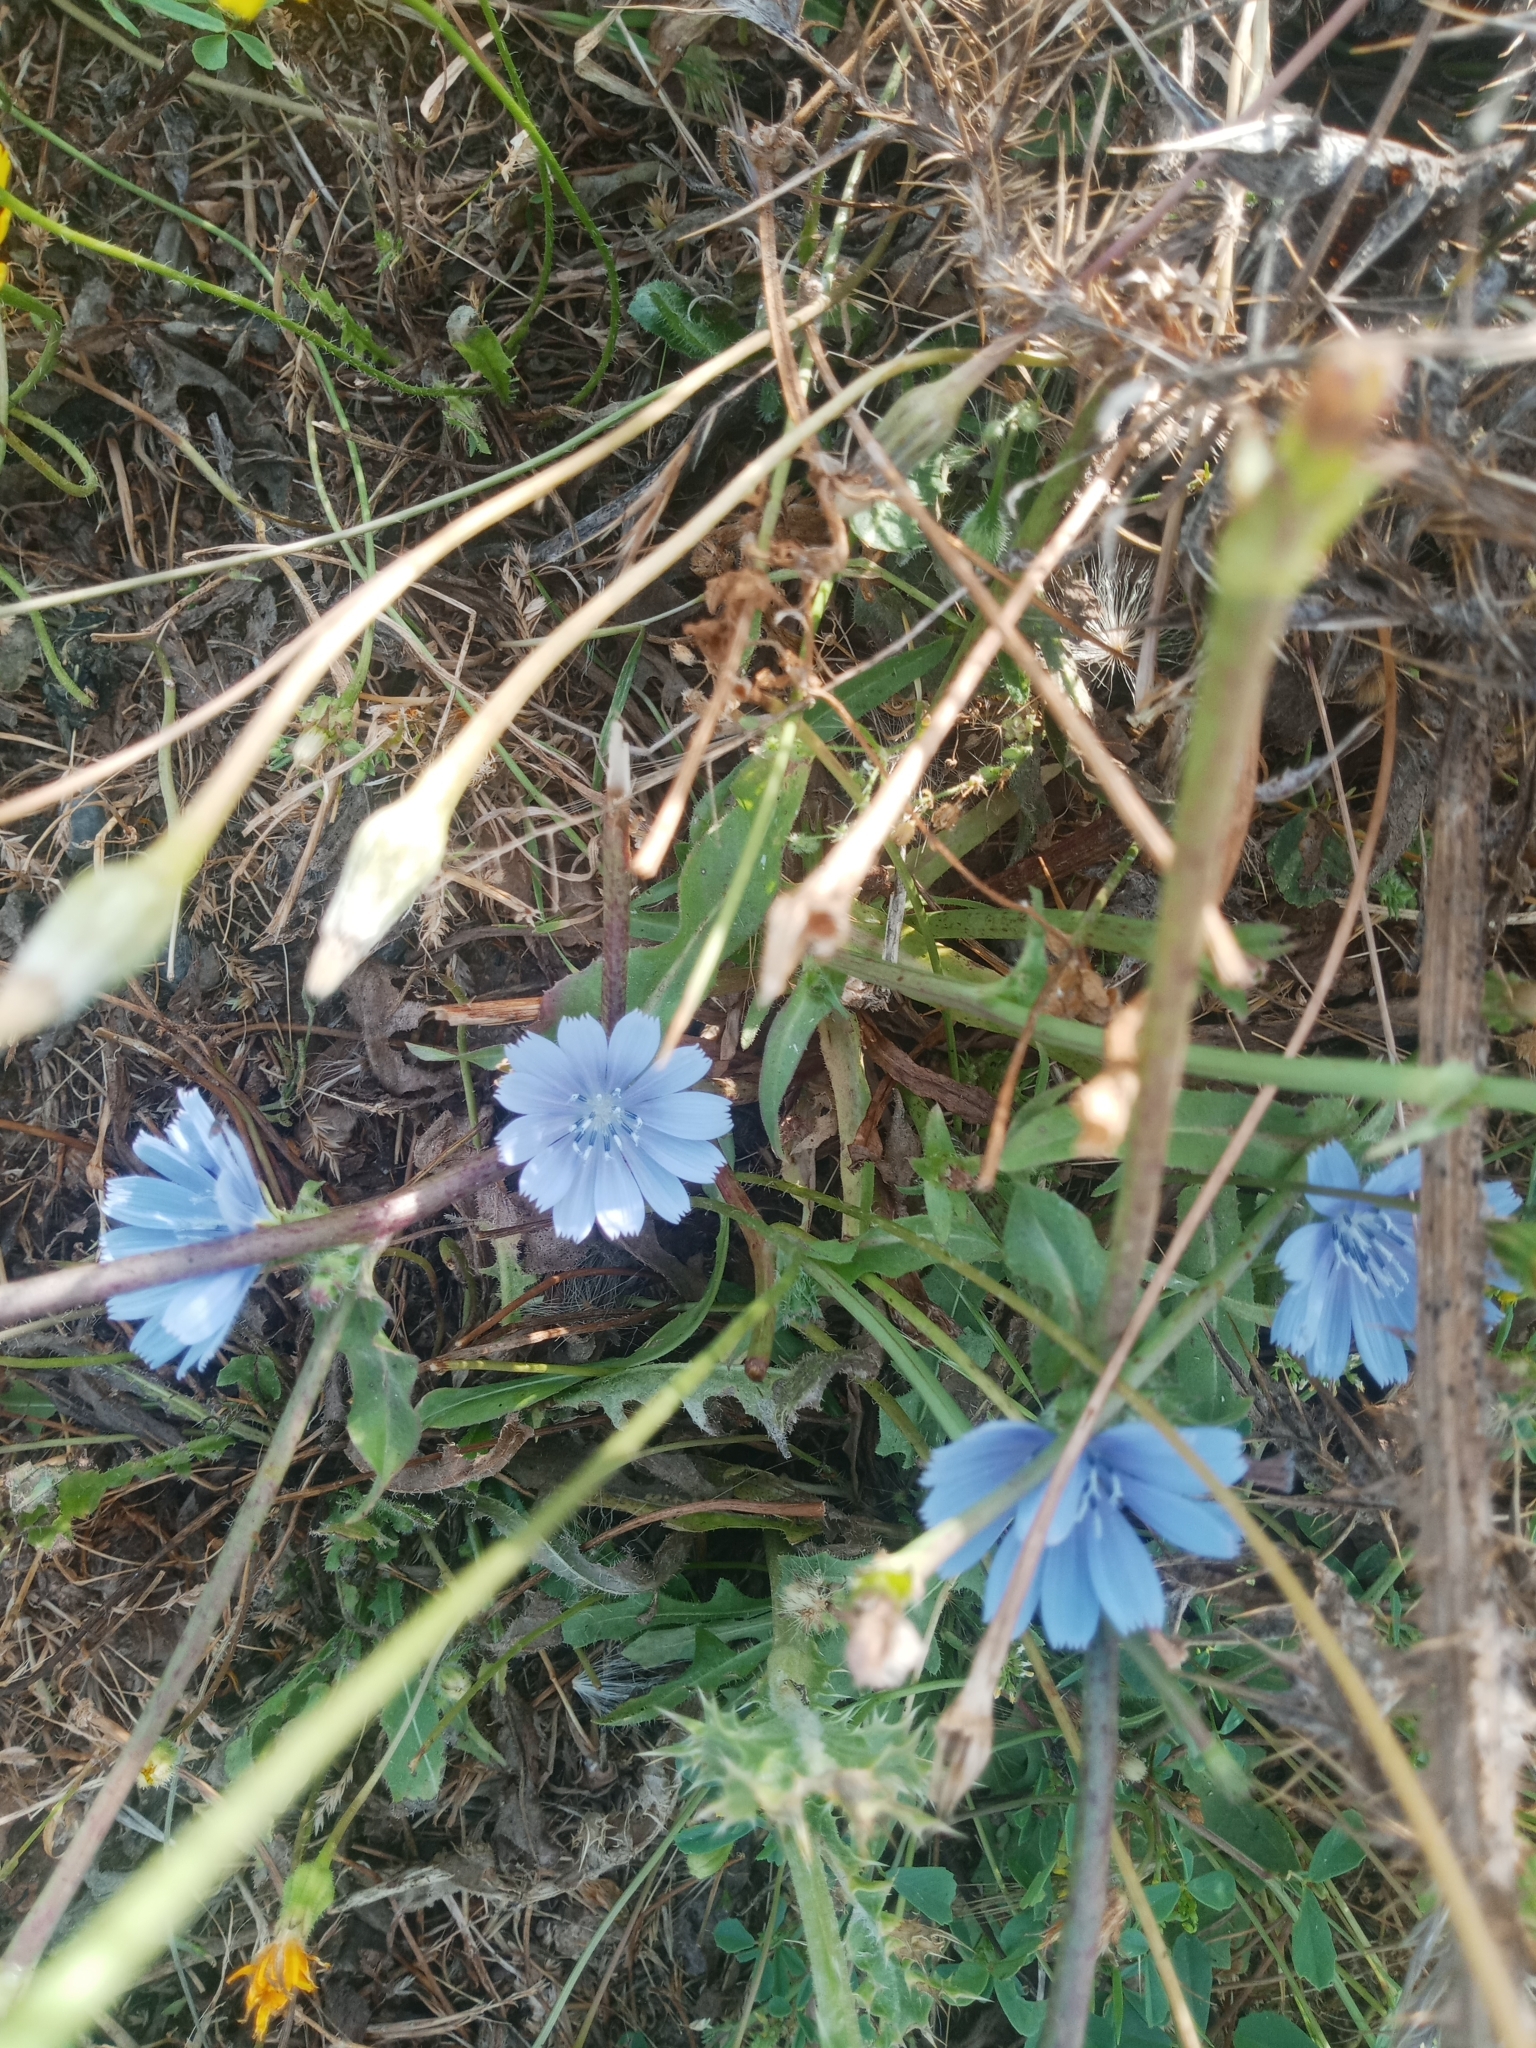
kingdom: Plantae
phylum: Tracheophyta
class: Magnoliopsida
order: Asterales
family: Asteraceae
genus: Cichorium
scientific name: Cichorium intybus
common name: Chicory
